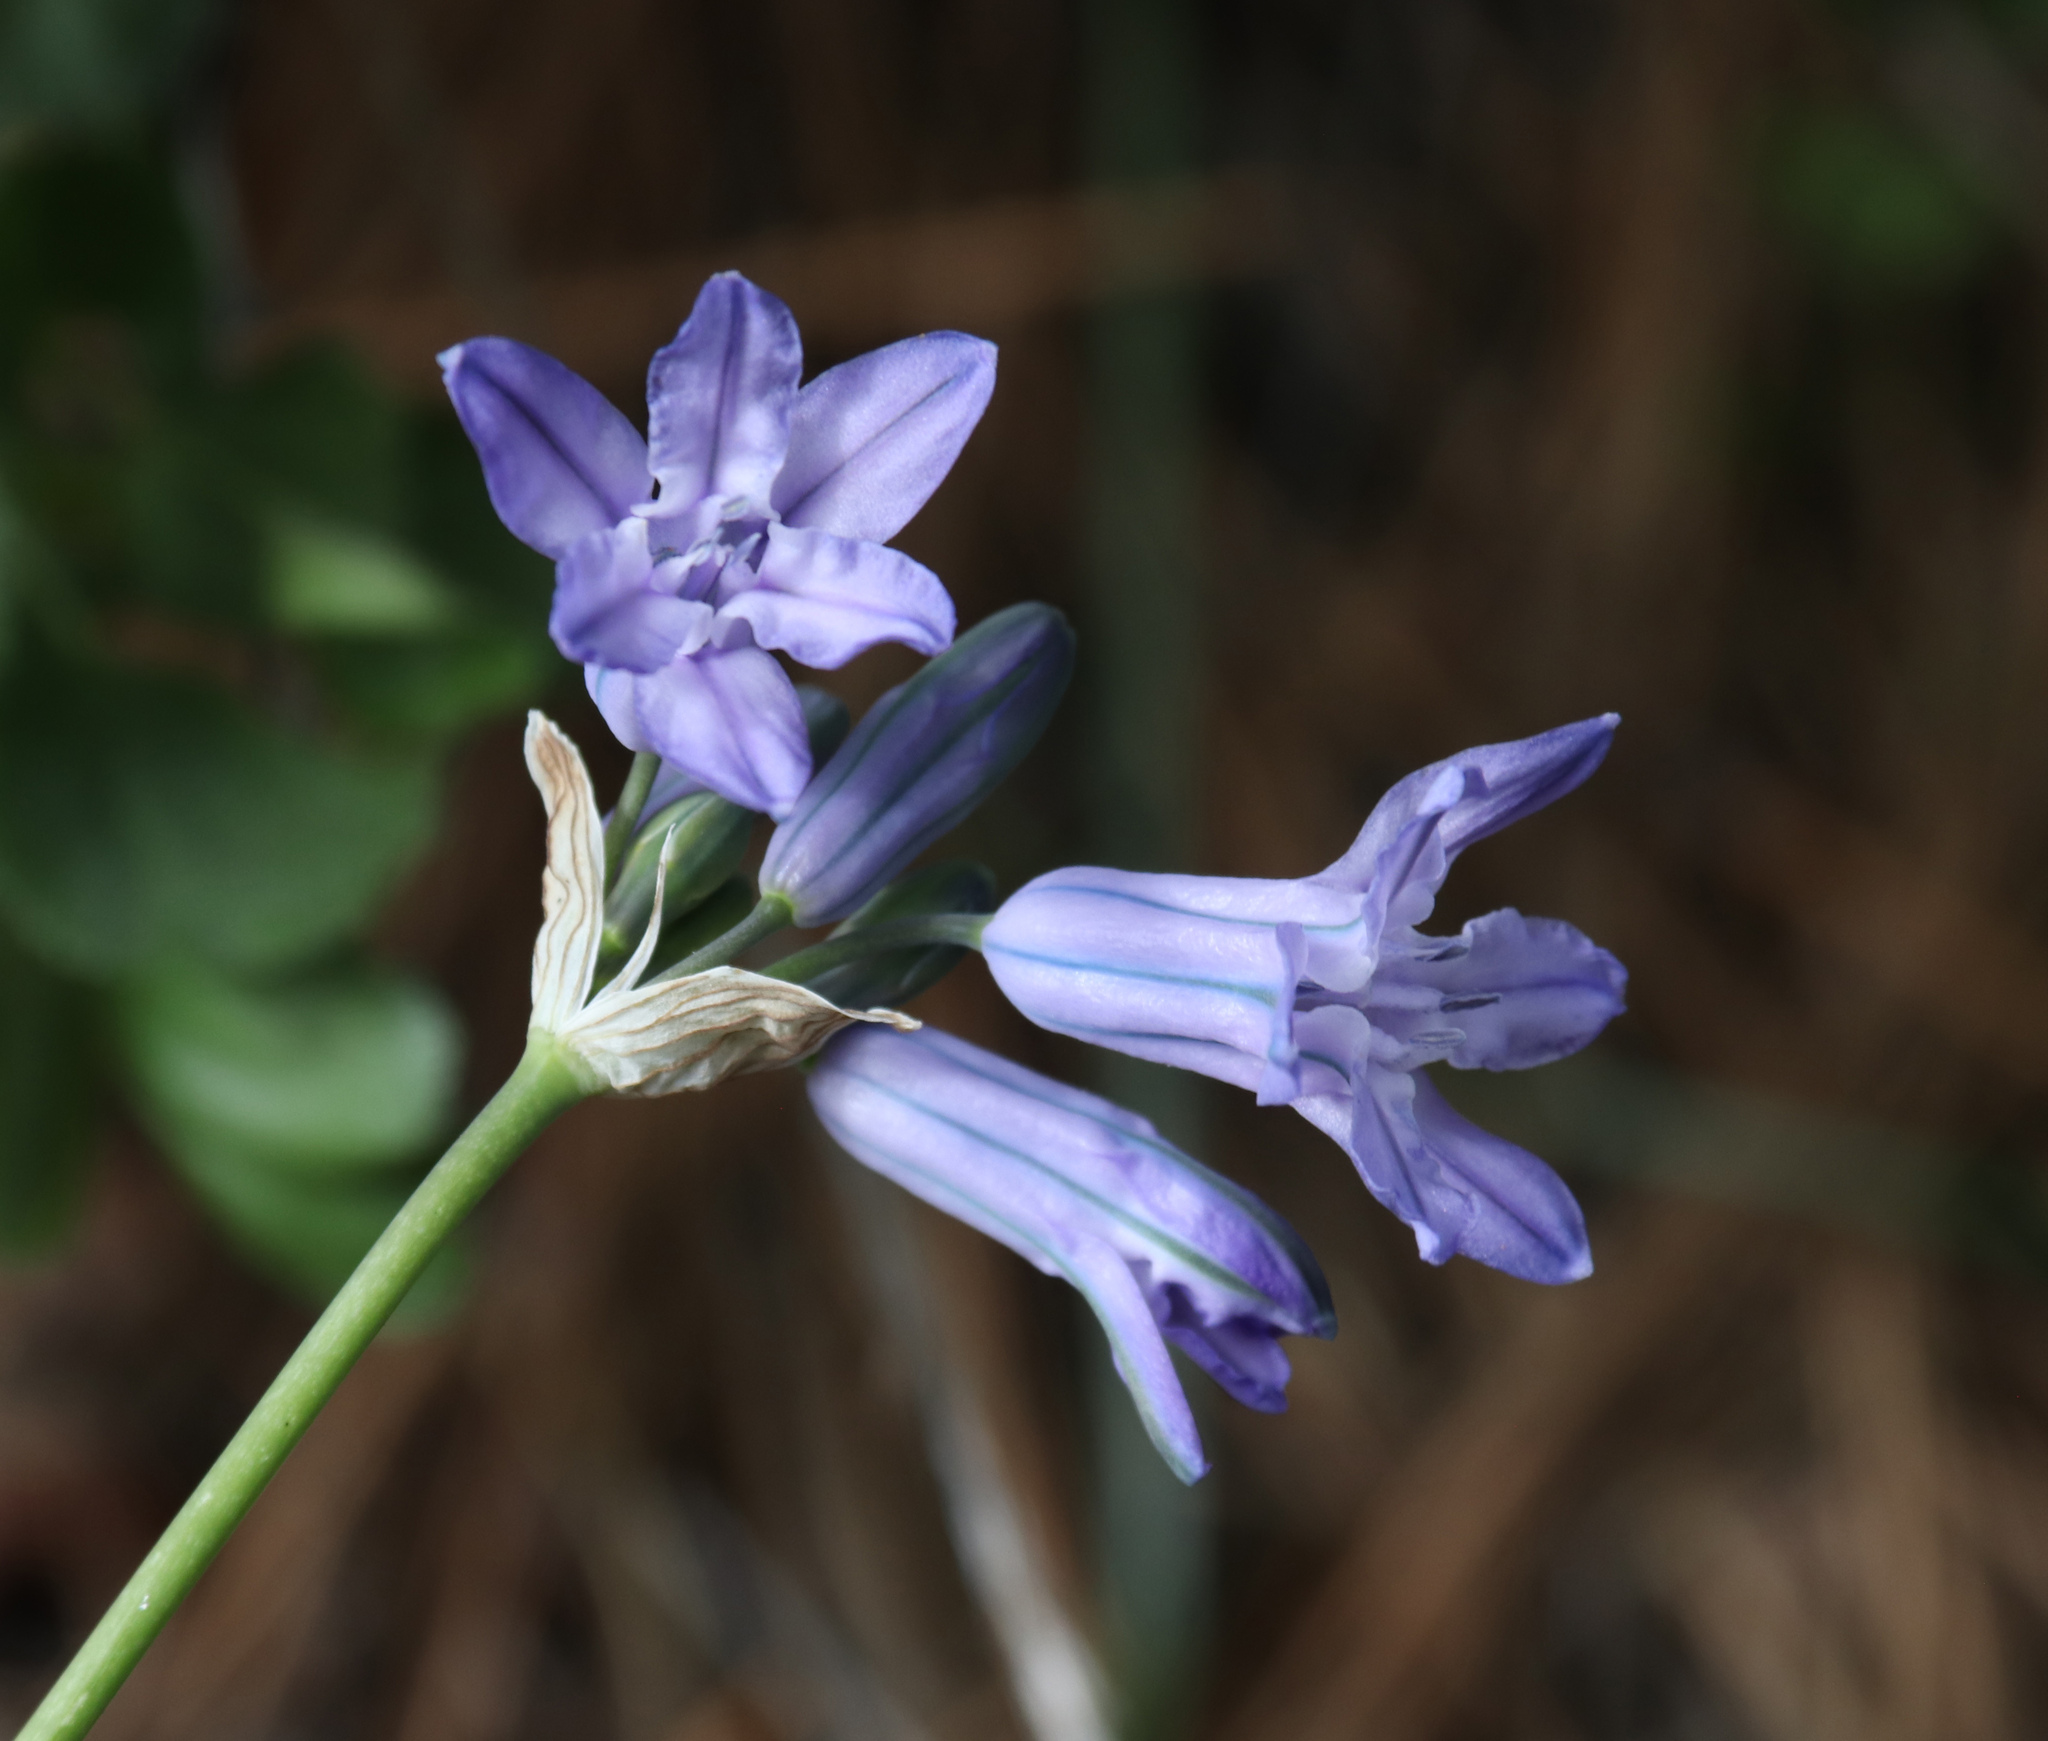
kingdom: Plantae
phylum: Tracheophyta
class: Liliopsida
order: Asparagales
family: Asparagaceae
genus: Triteleia
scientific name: Triteleia grandiflora
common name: Wild hyacinth
